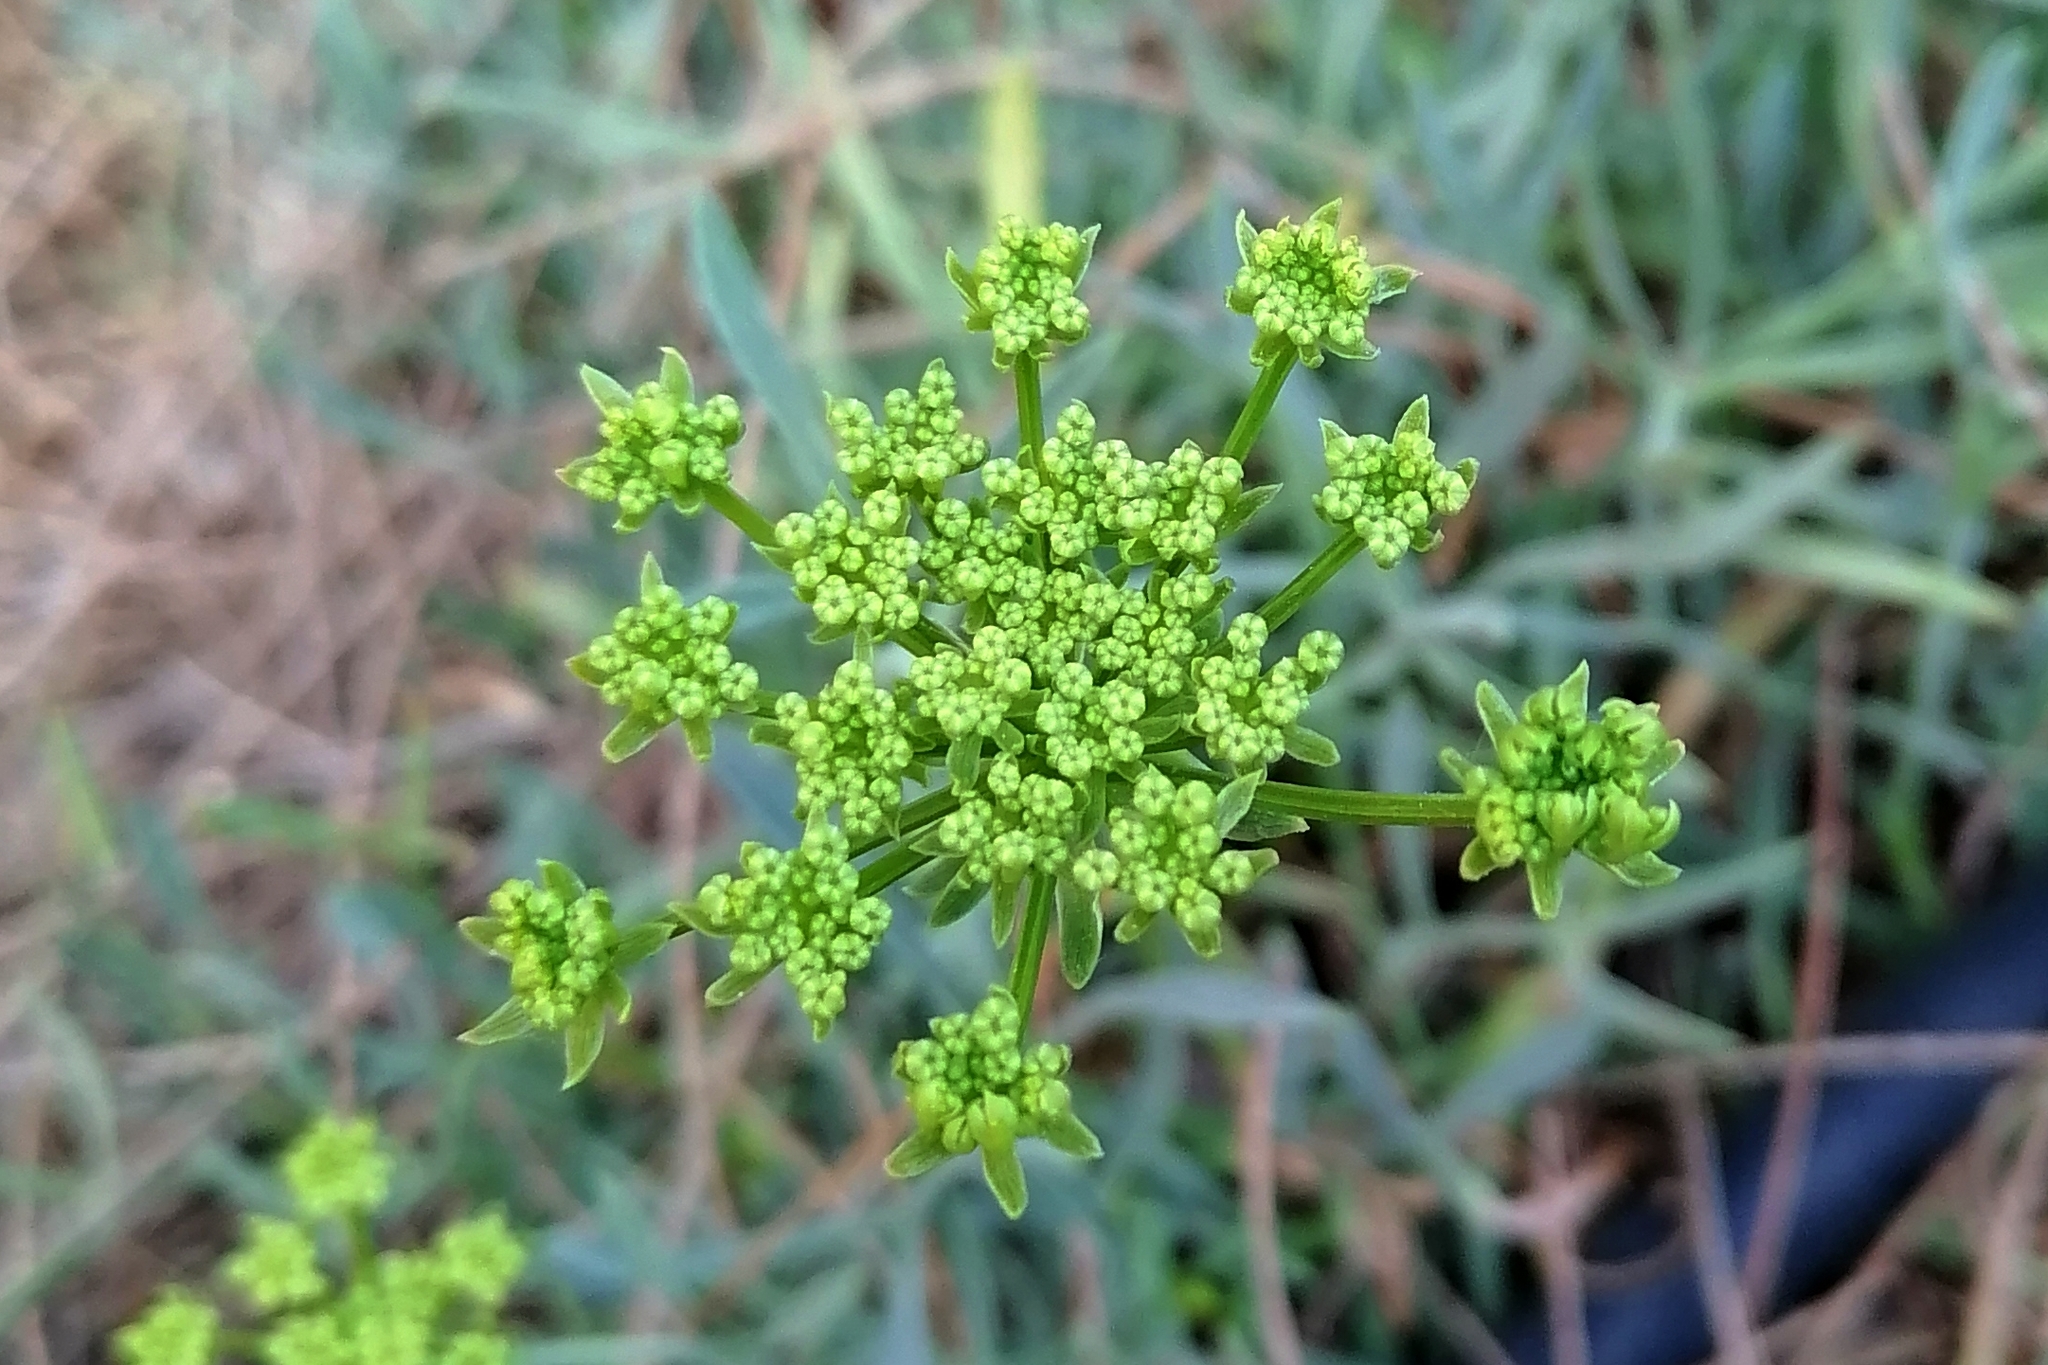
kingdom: Plantae
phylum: Tracheophyta
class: Magnoliopsida
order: Apiales
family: Apiaceae
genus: Crithmum
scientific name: Crithmum maritimum
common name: Rock samphire
